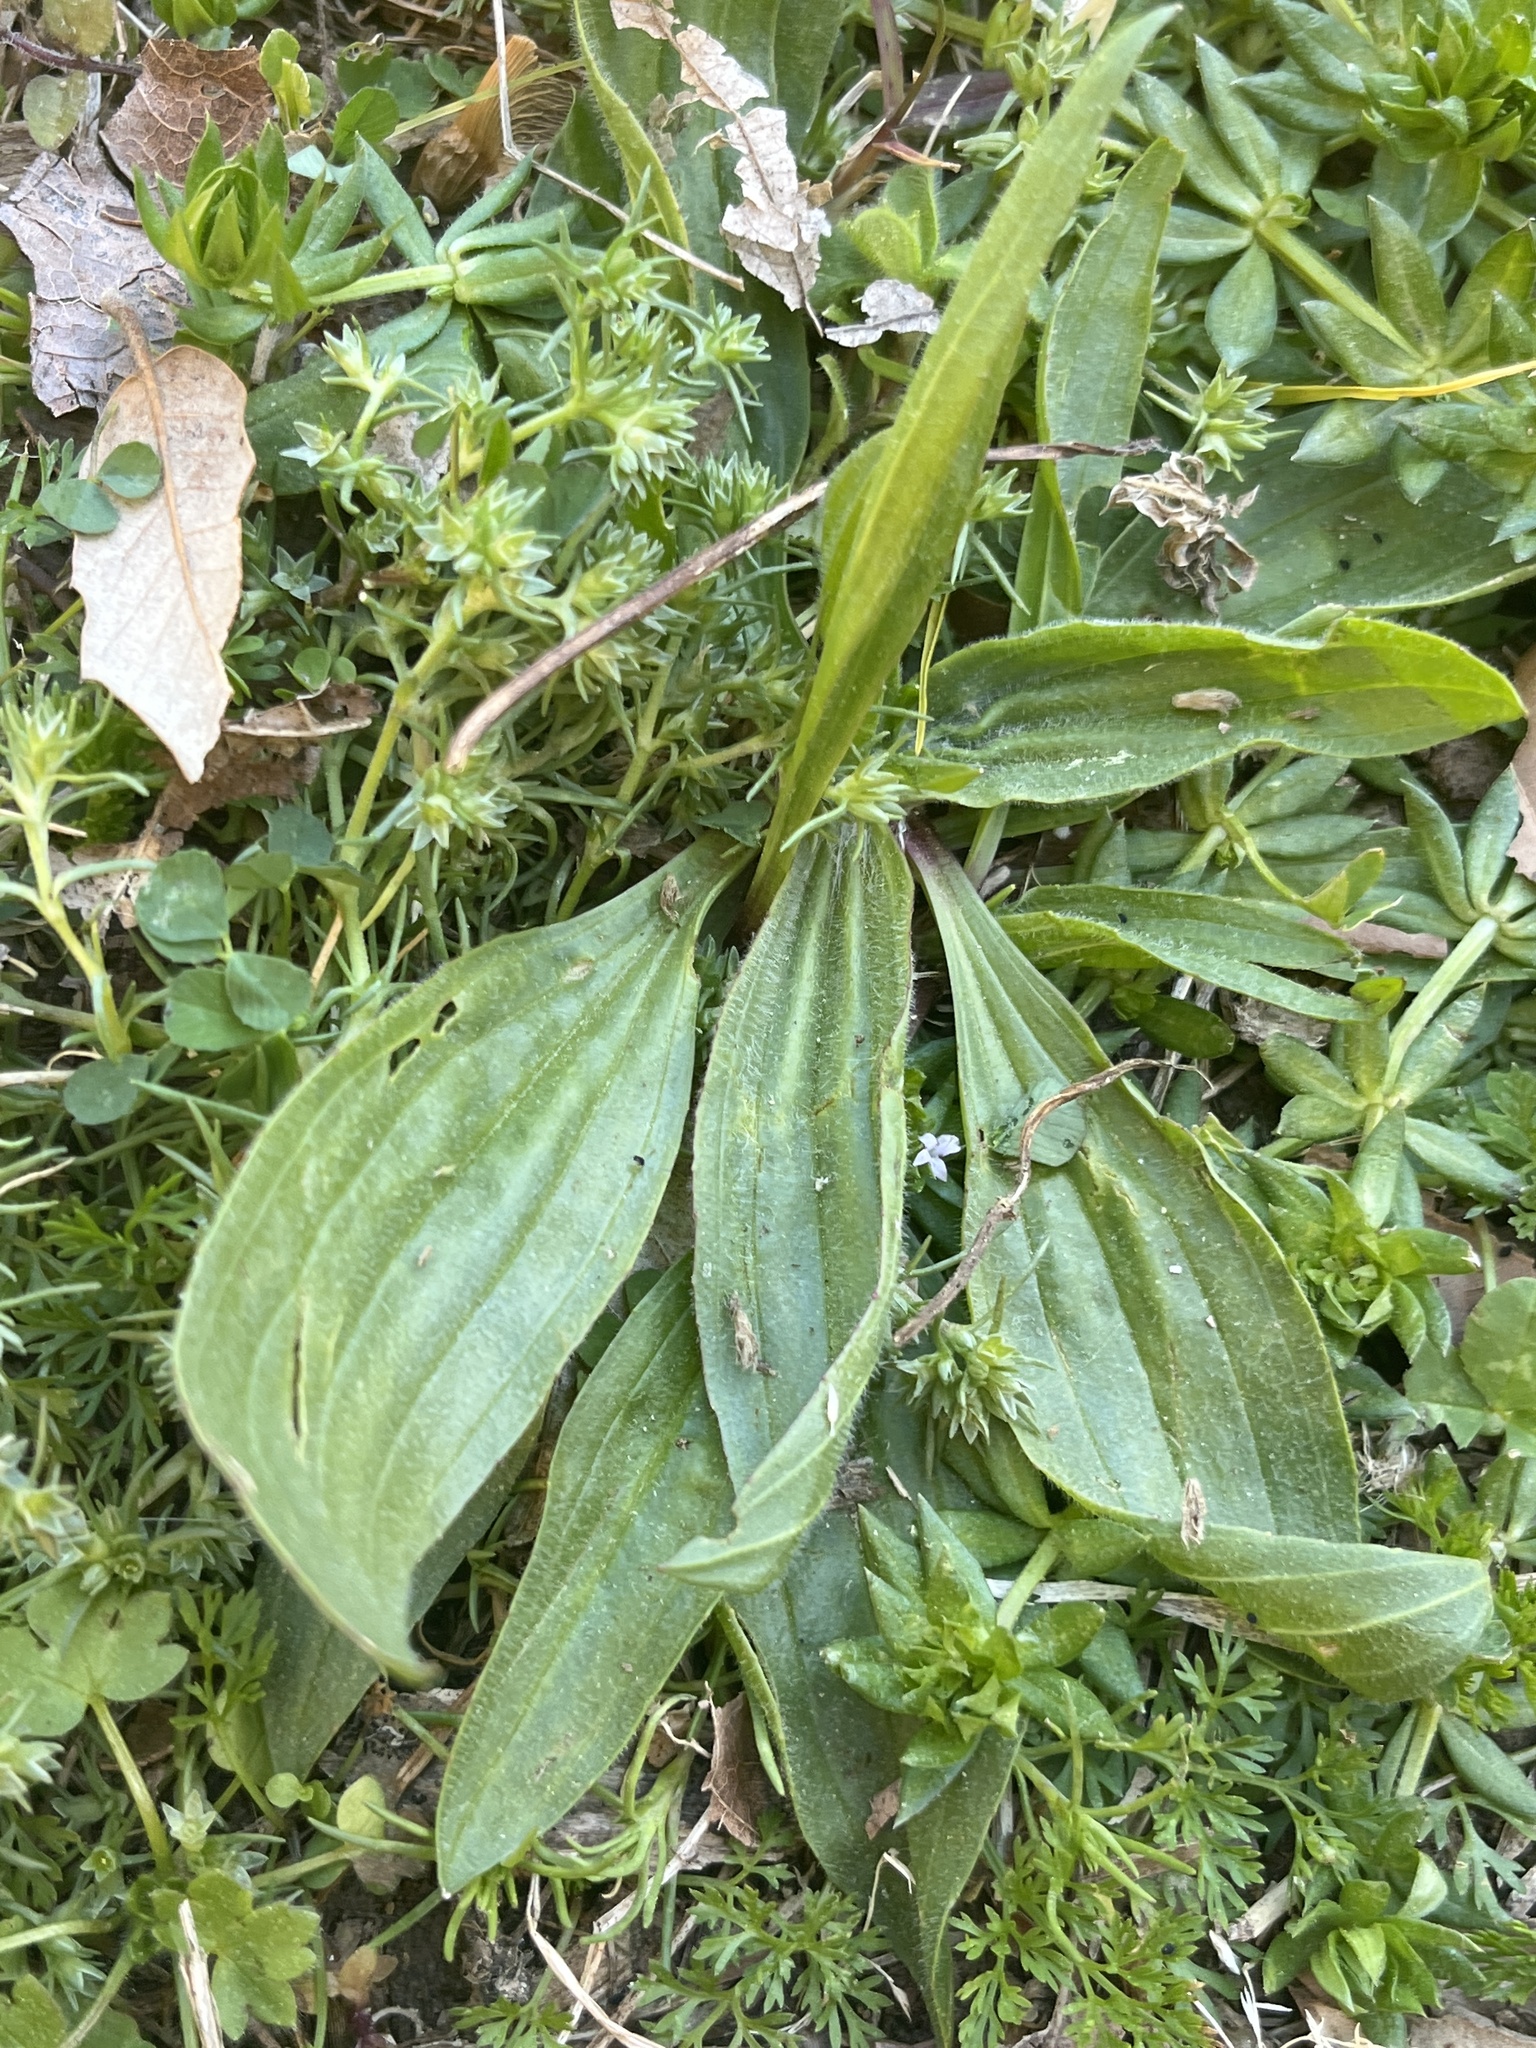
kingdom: Plantae
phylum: Tracheophyta
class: Magnoliopsida
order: Lamiales
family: Plantaginaceae
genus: Plantago
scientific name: Plantago lanceolata
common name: Ribwort plantain
